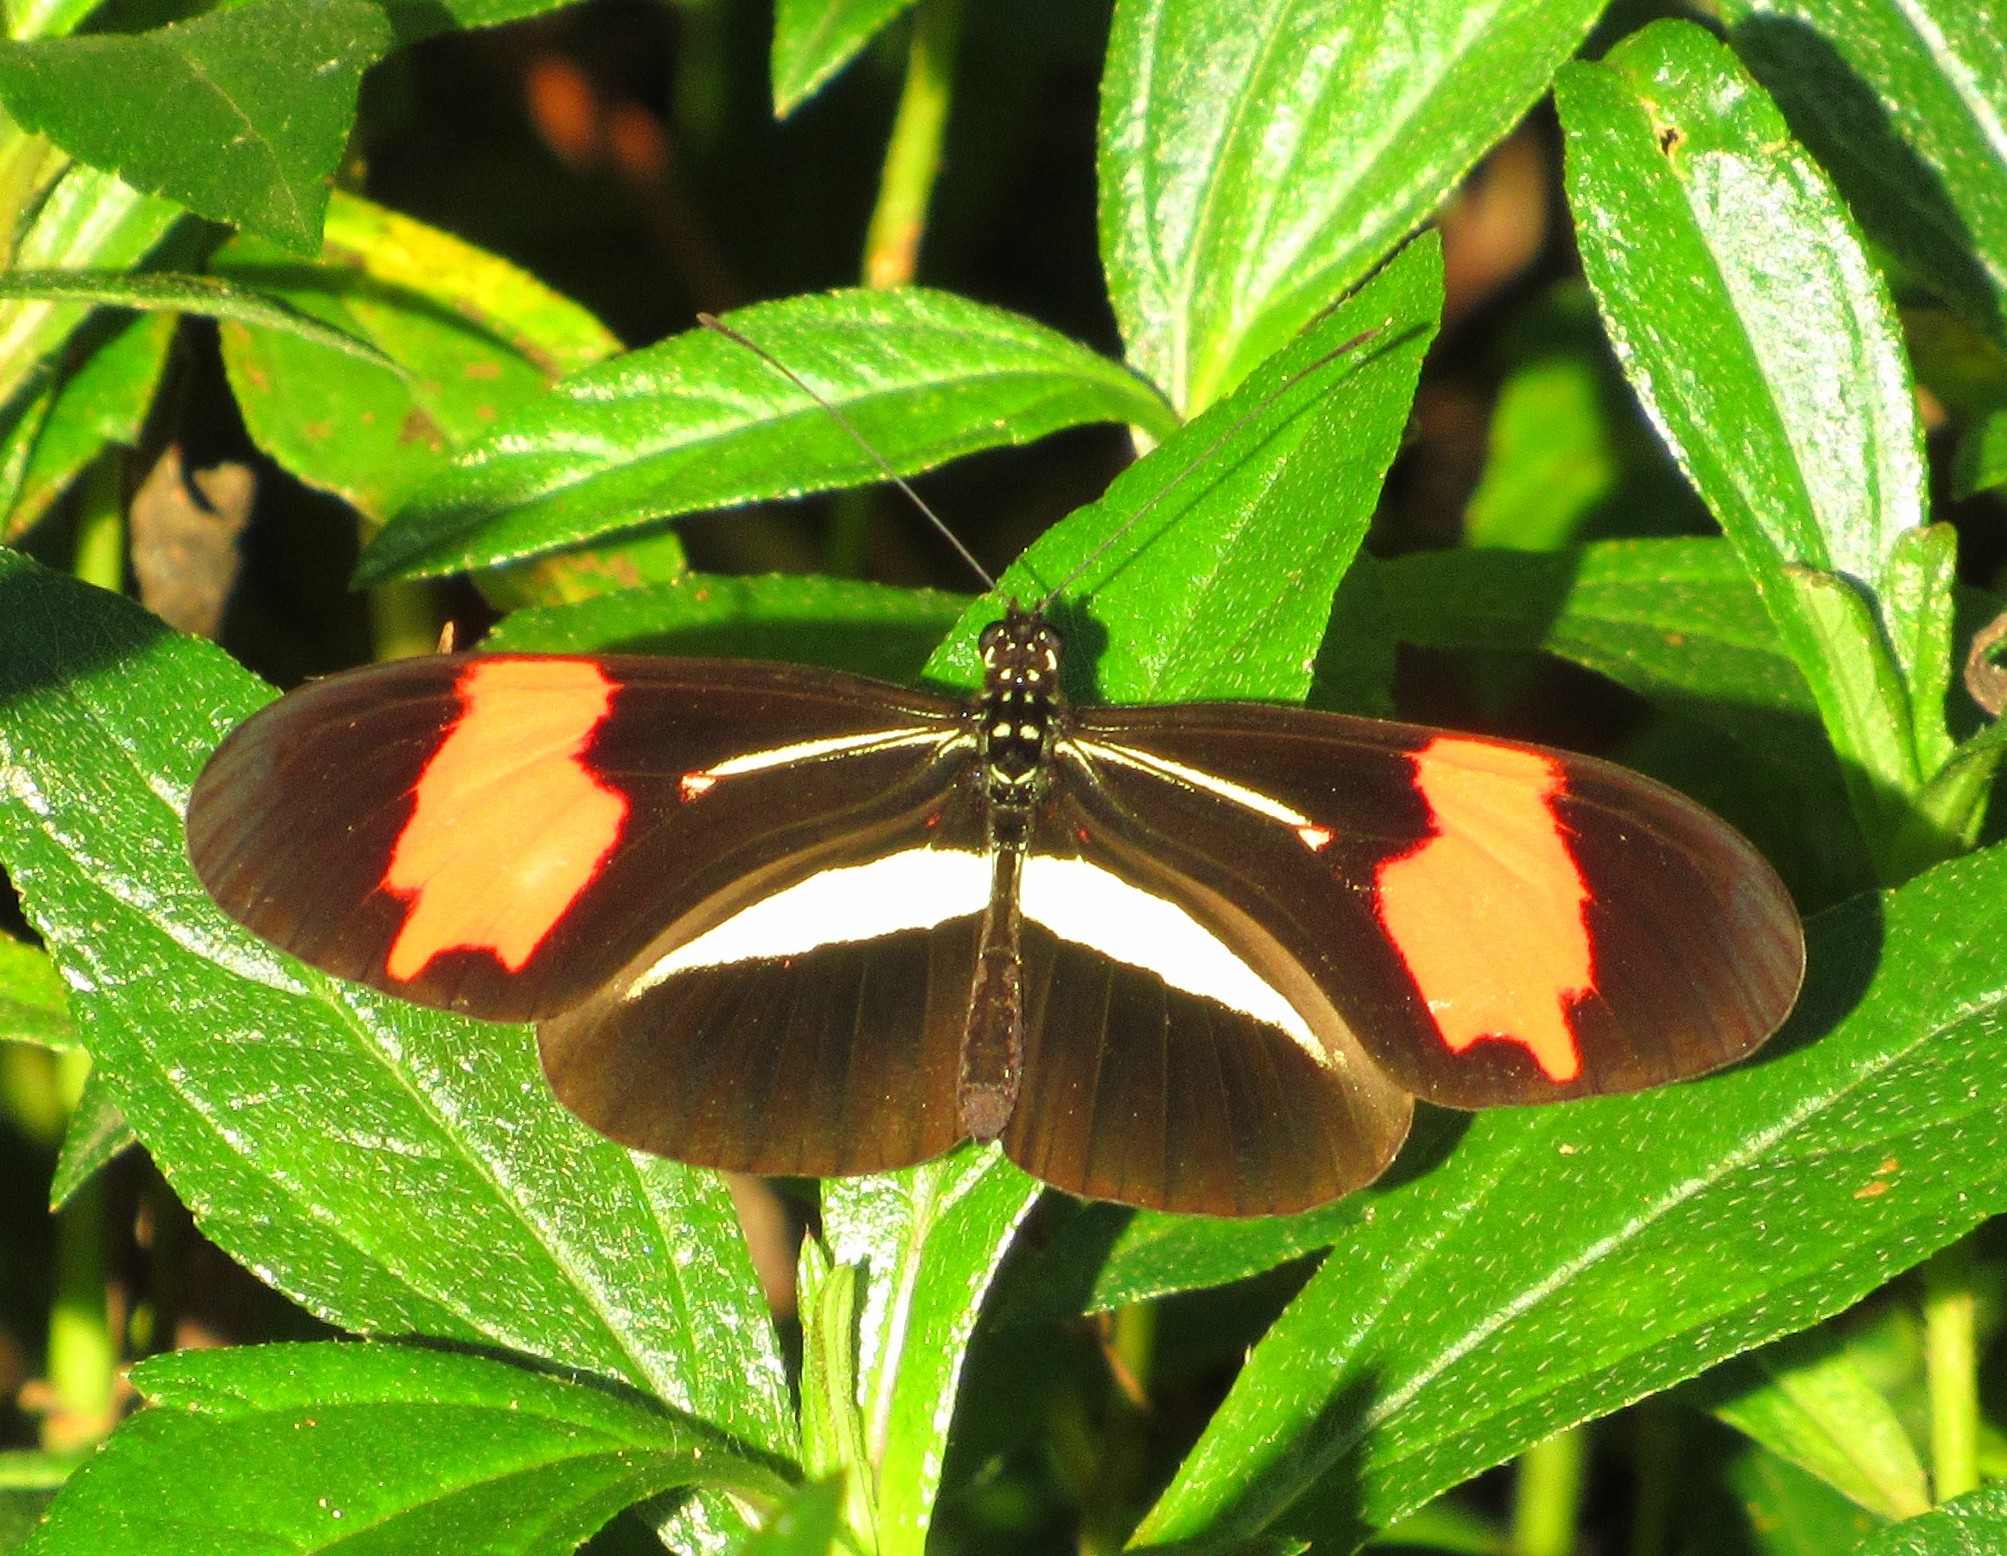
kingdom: Animalia
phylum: Arthropoda
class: Insecta
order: Lepidoptera
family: Nymphalidae
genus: Heliconius
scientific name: Heliconius erato
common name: Common patch longwing
